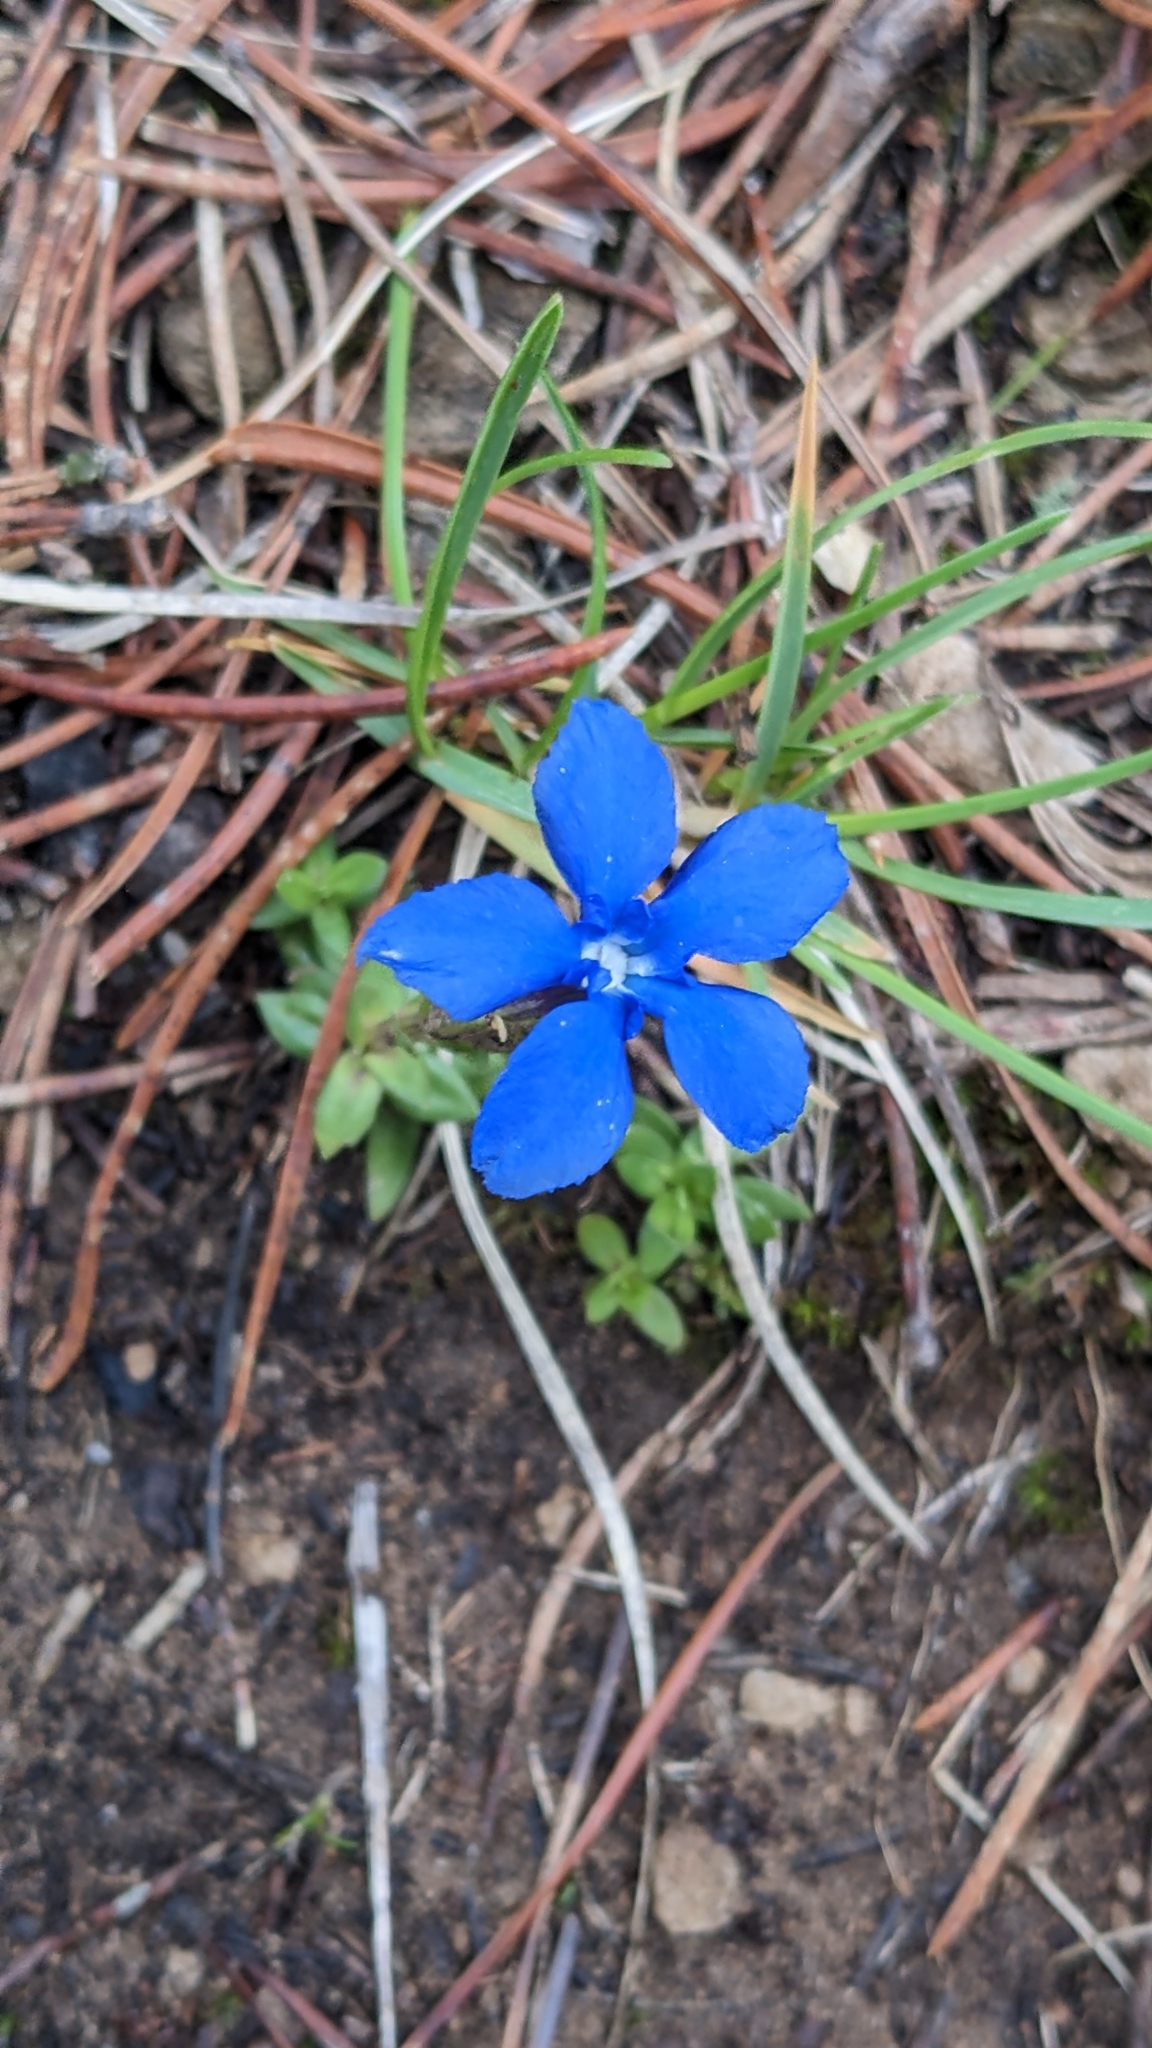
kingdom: Plantae
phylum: Tracheophyta
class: Magnoliopsida
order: Gentianales
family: Gentianaceae
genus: Gentiana
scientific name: Gentiana verna
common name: Spring gentian
